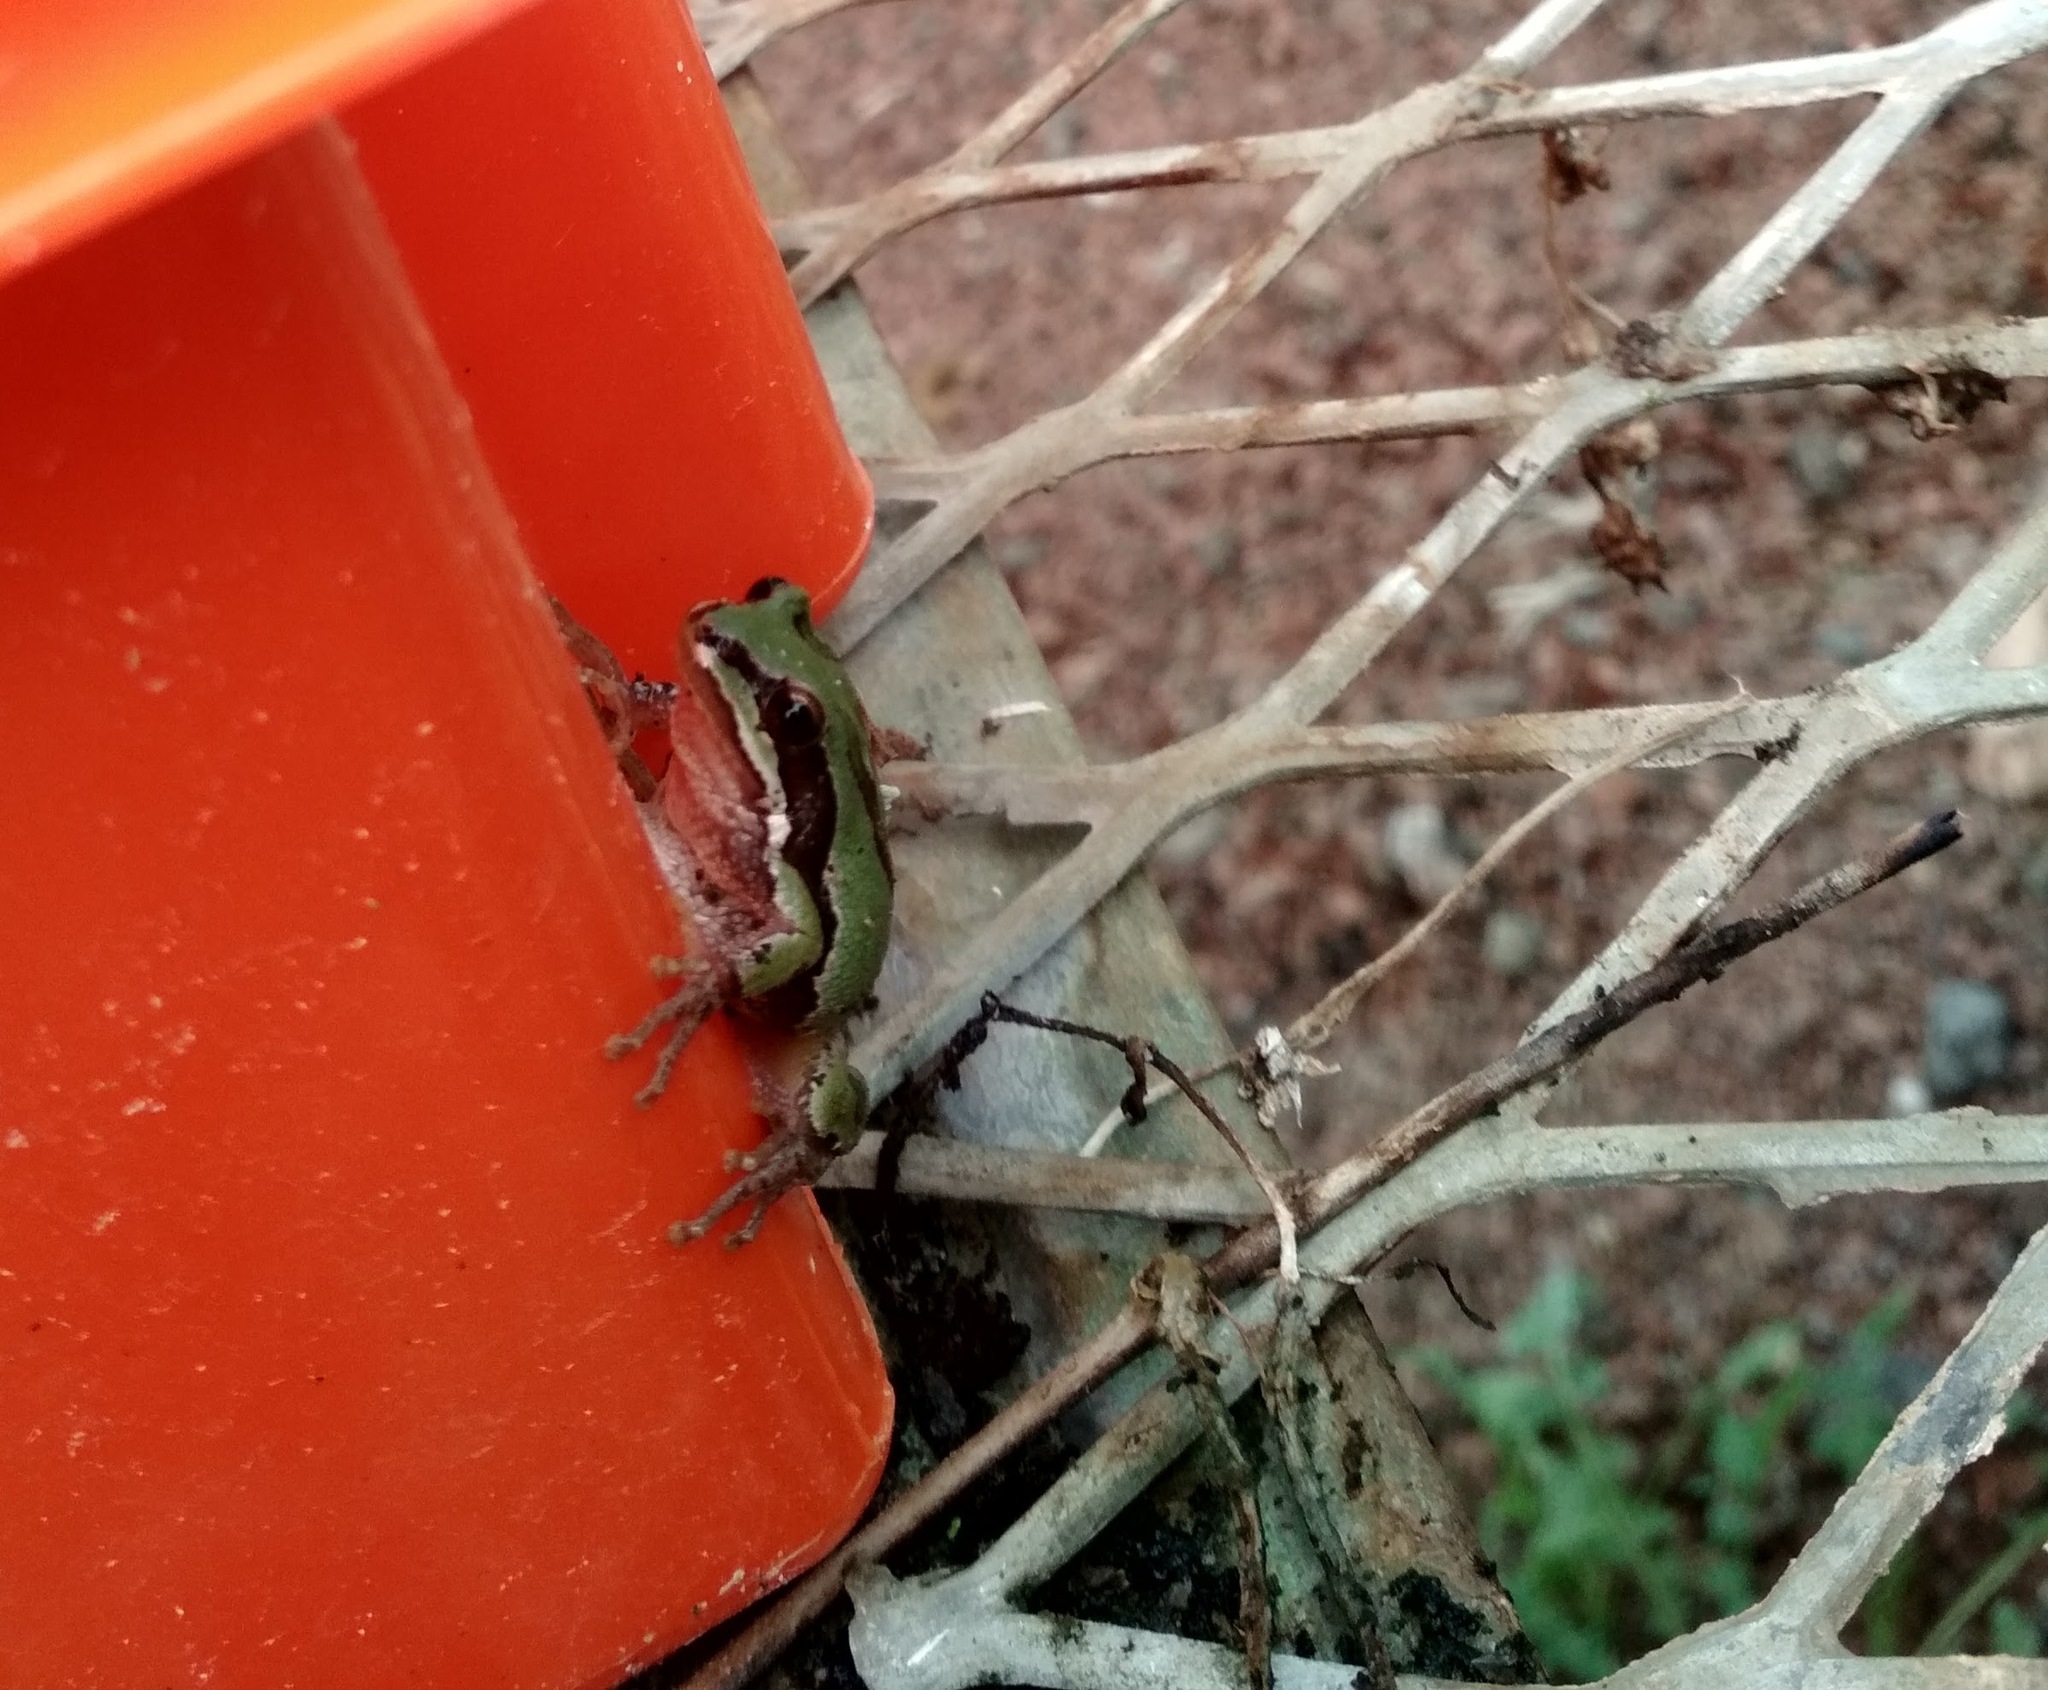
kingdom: Animalia
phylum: Chordata
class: Amphibia
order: Anura
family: Hylidae
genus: Dryophytes
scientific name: Dryophytes eximius
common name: Mountain treefrog
